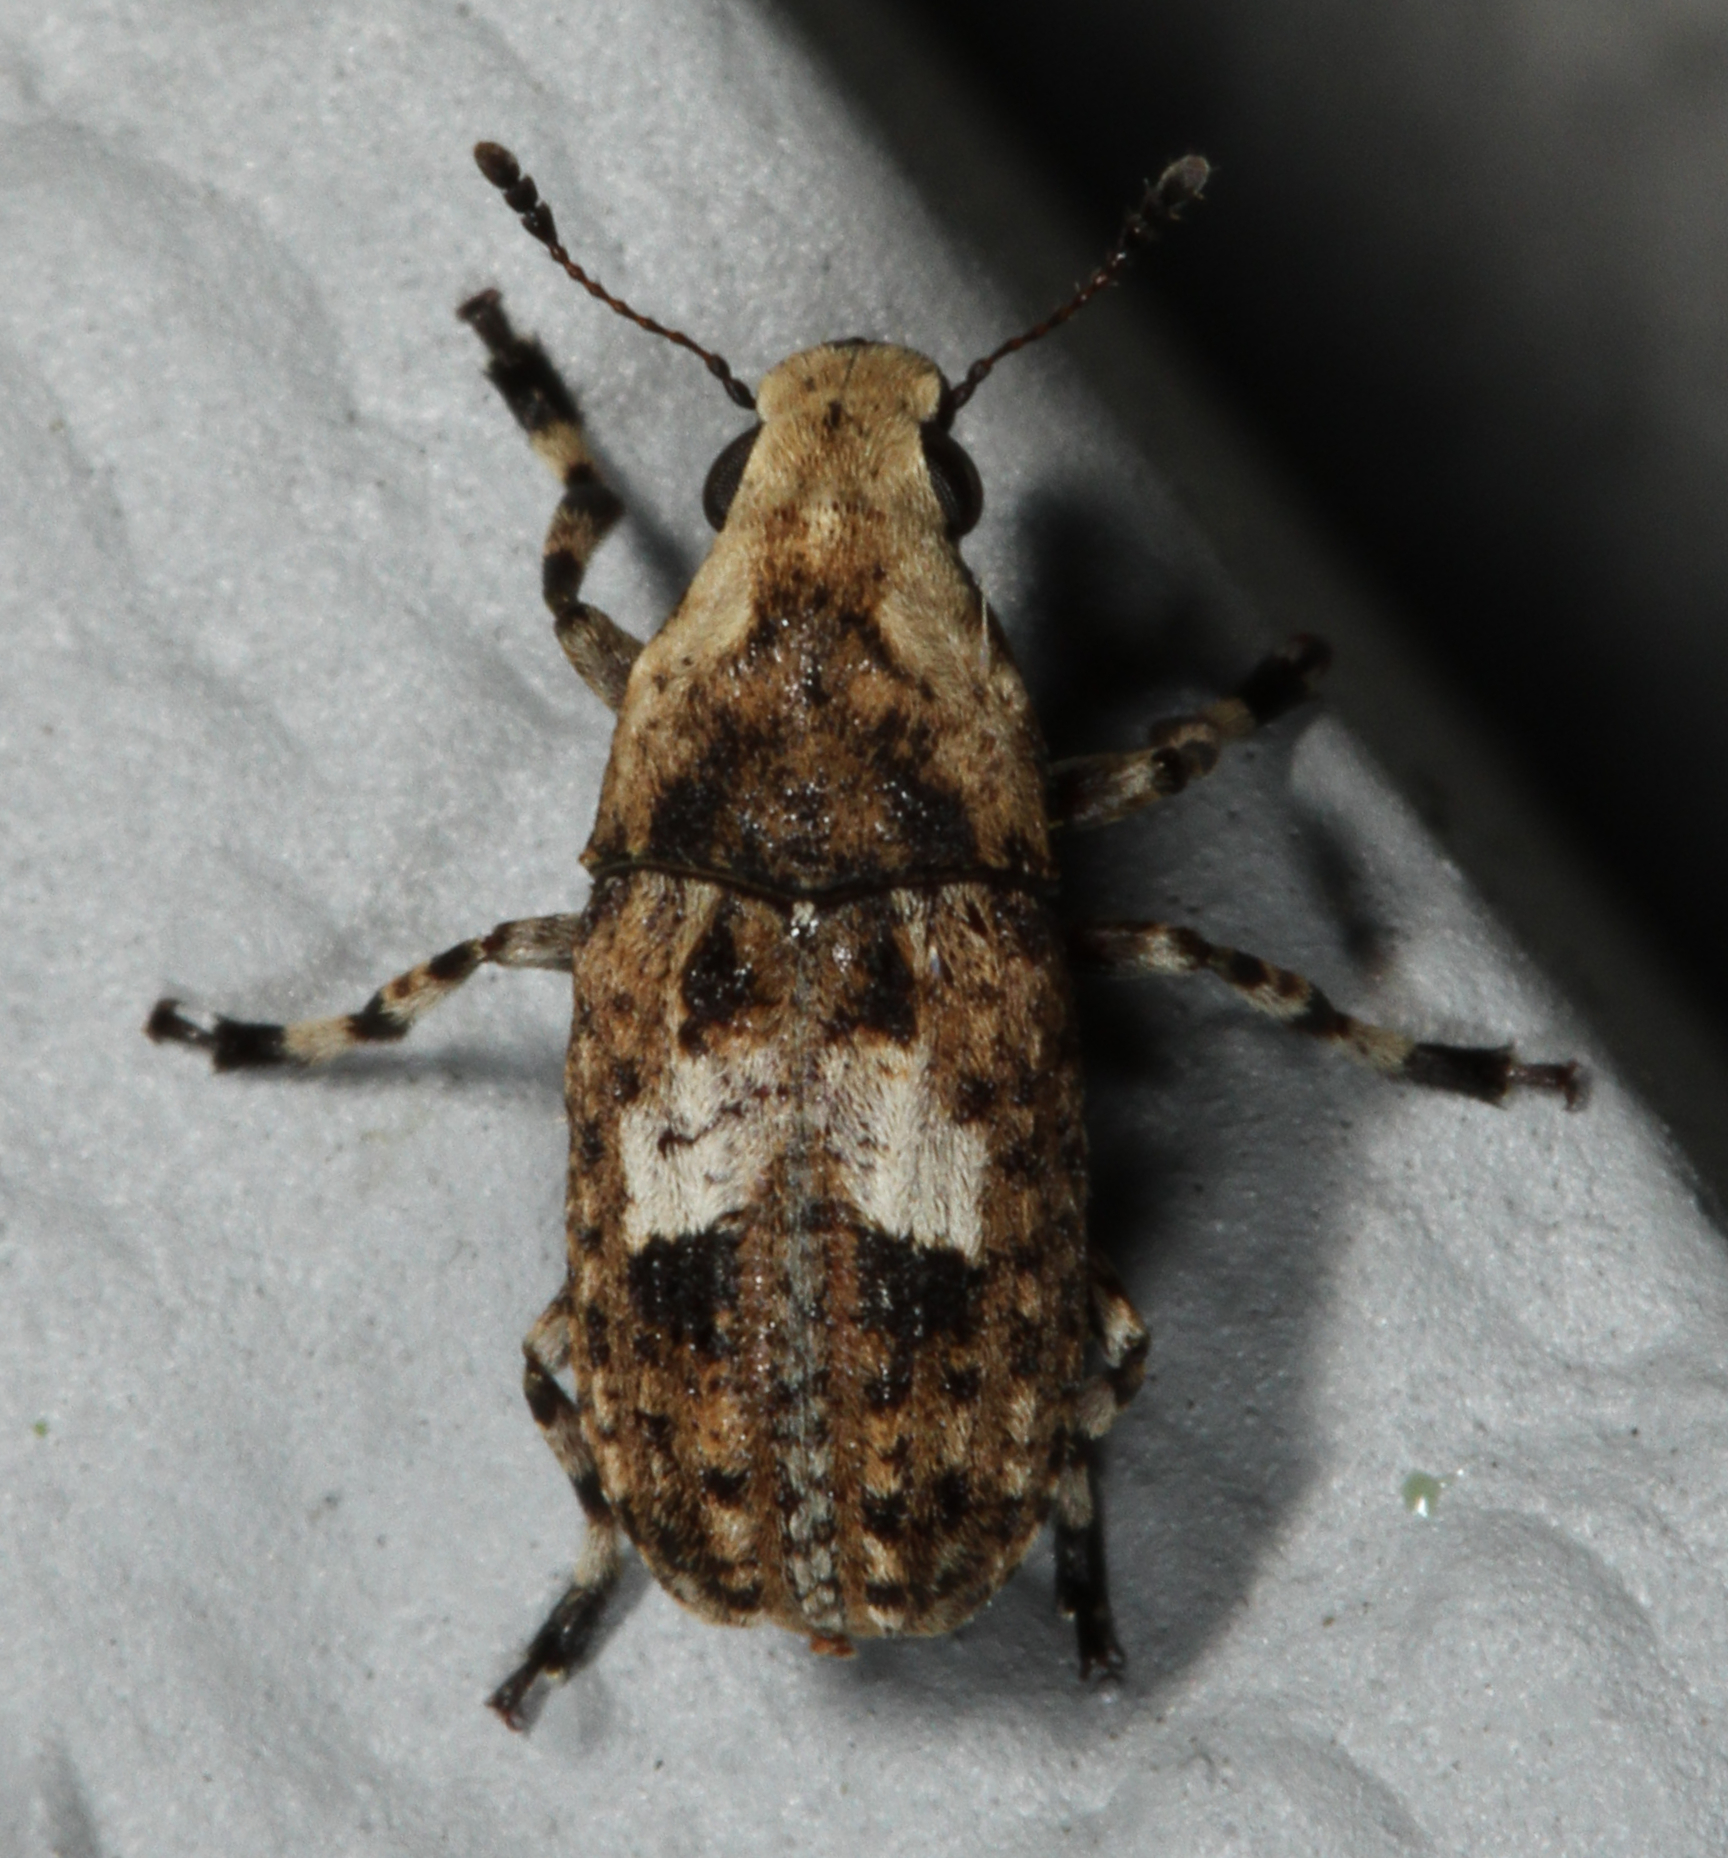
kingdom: Animalia
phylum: Arthropoda
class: Insecta
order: Coleoptera
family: Anthribidae
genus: Euparius
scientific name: Euparius marmoreus
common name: Marbled fungus weevil
